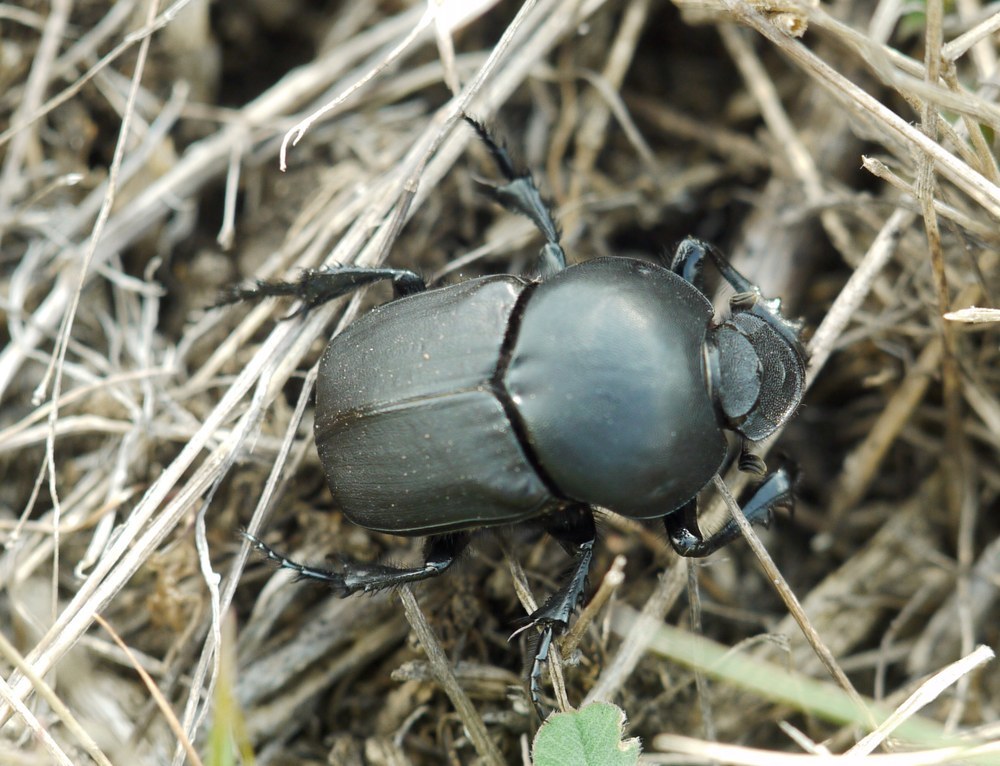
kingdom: Animalia
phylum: Arthropoda
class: Insecta
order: Coleoptera
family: Scarabaeidae
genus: Onitis
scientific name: Onitis damoetas
